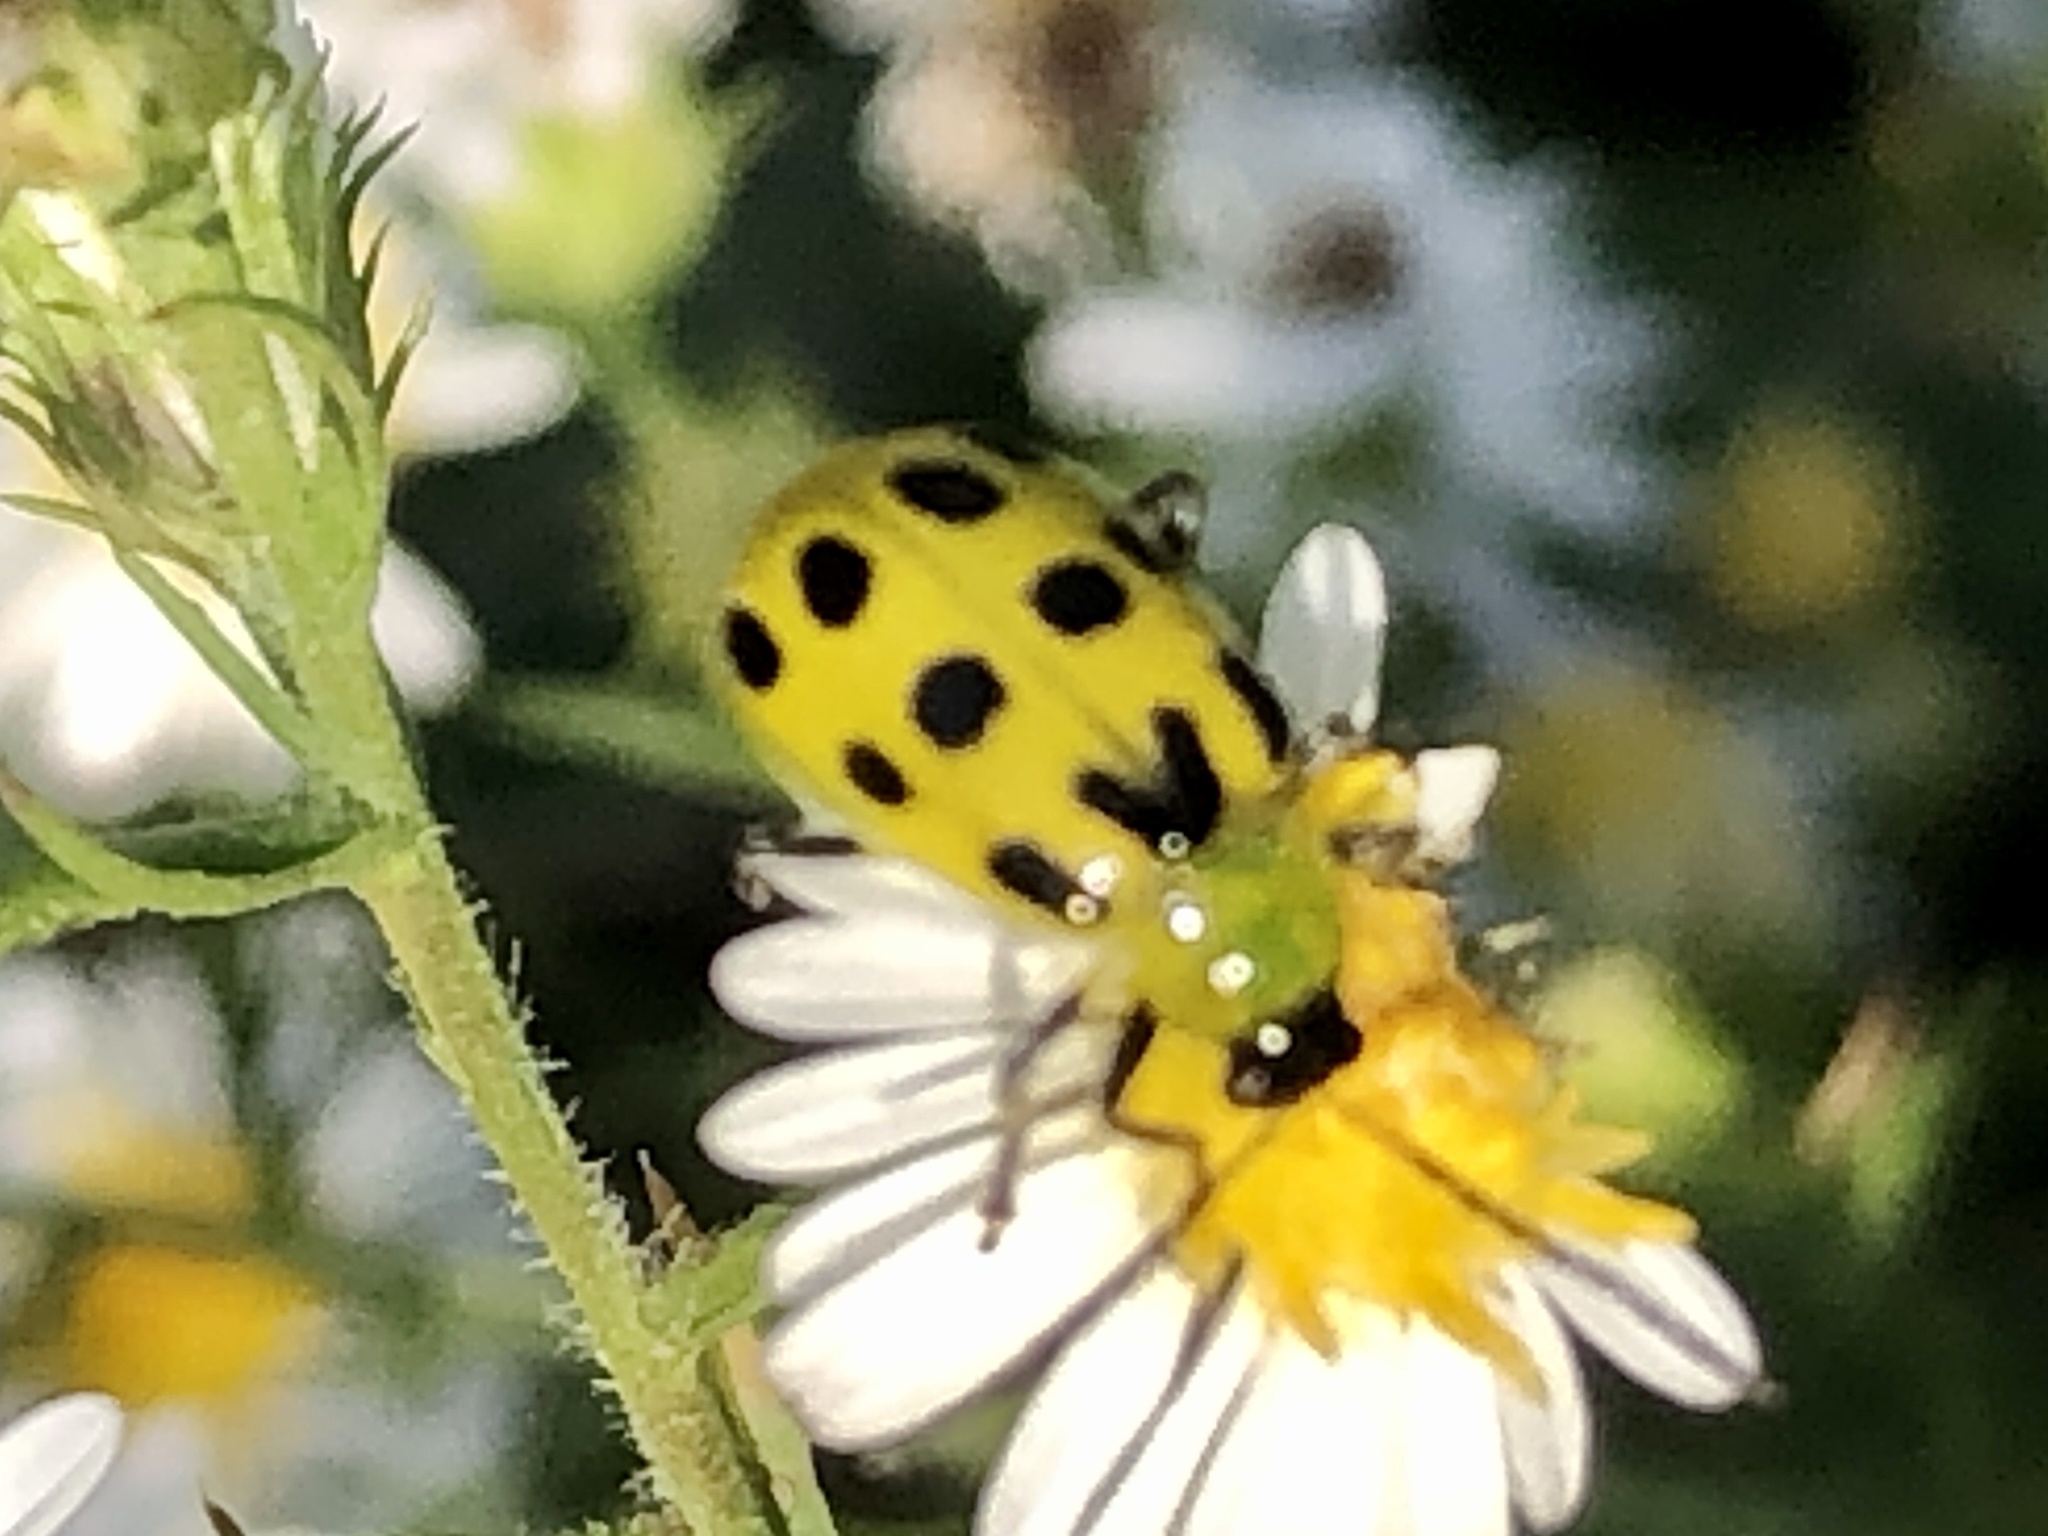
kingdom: Animalia
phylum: Arthropoda
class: Insecta
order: Coleoptera
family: Chrysomelidae
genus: Diabrotica
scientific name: Diabrotica undecimpunctata
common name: Spotted cucumber beetle
